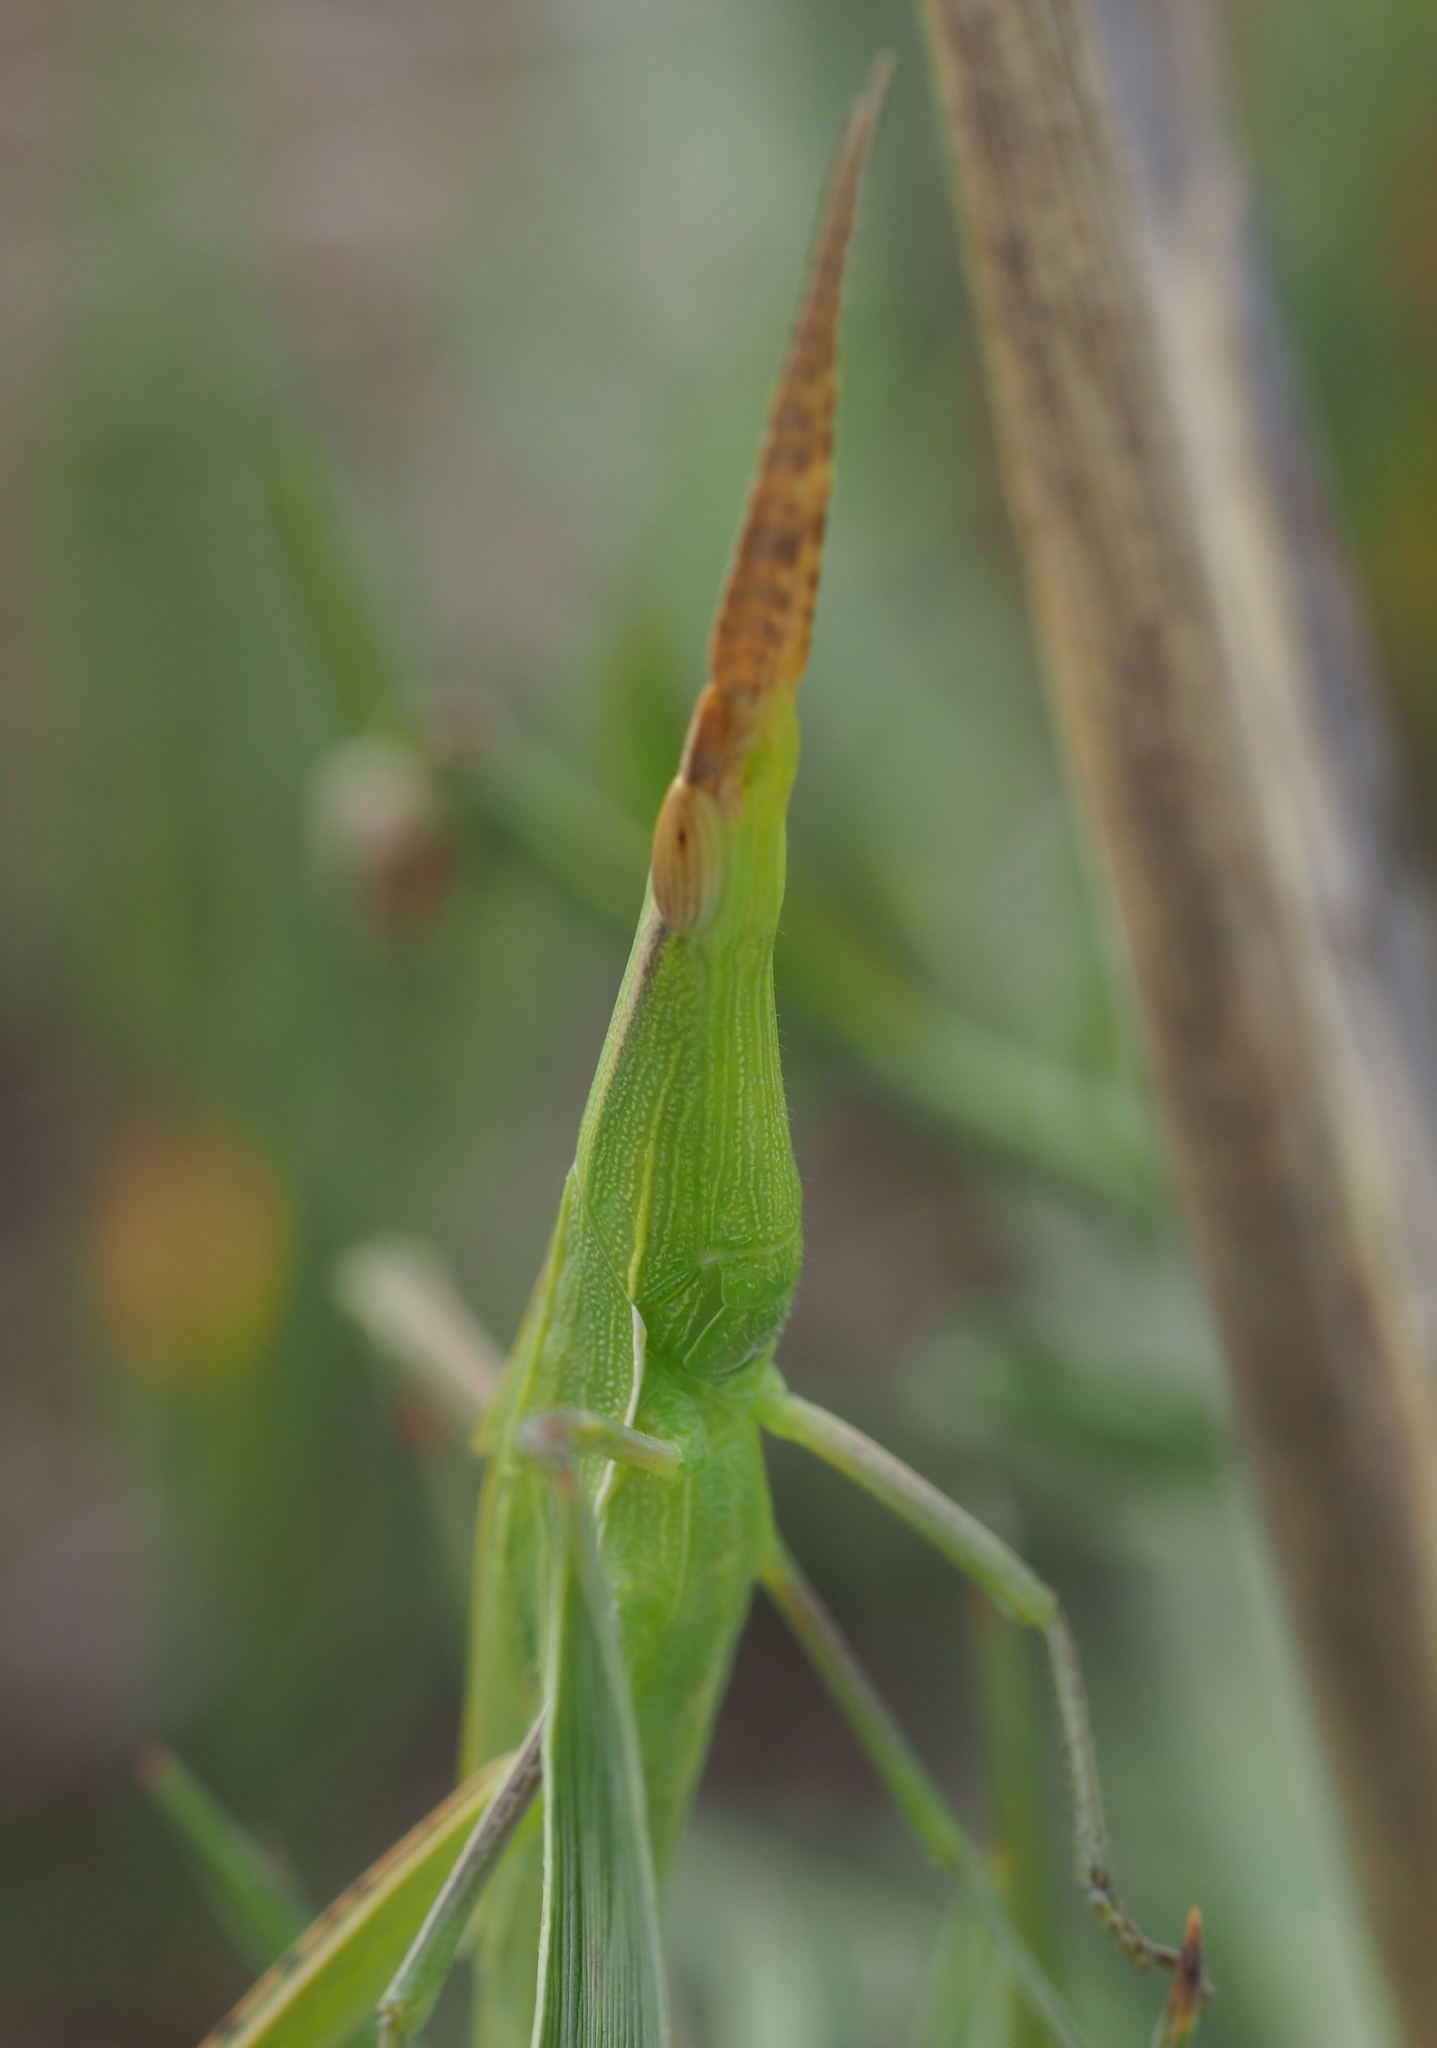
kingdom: Animalia
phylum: Arthropoda
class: Insecta
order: Orthoptera
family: Acrididae
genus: Acrida
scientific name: Acrida ungarica
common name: Common cone-headed grasshopper
